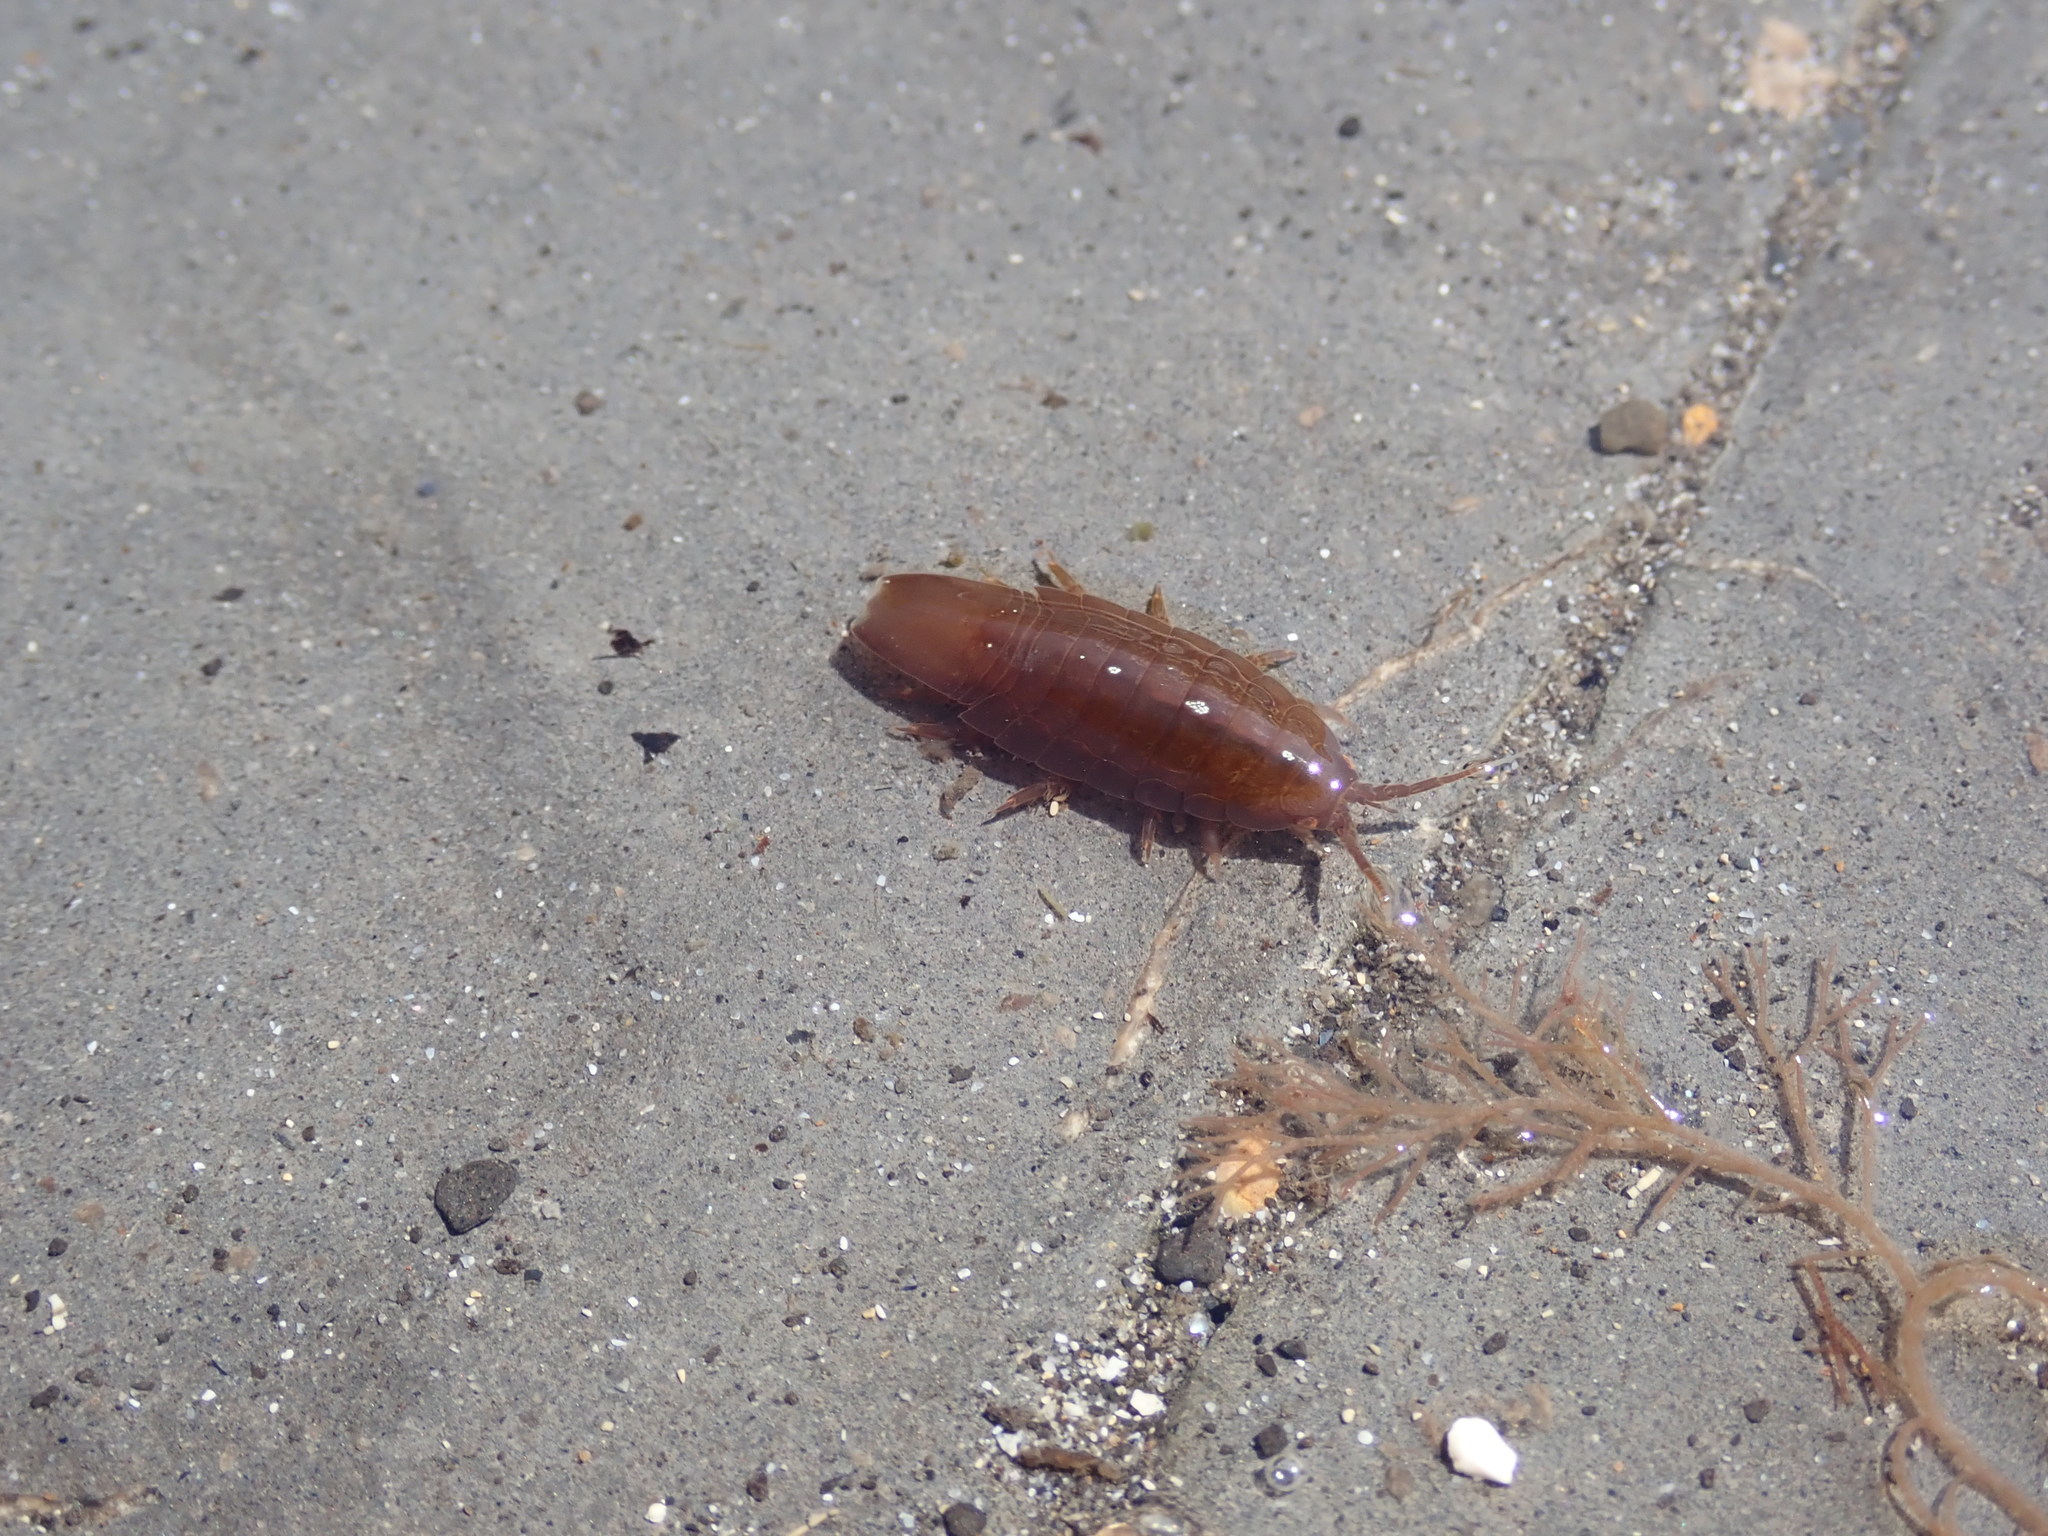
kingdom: Animalia
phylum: Arthropoda
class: Malacostraca
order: Isopoda
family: Idoteidae
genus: Idotea
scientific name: Idotea emarginata
